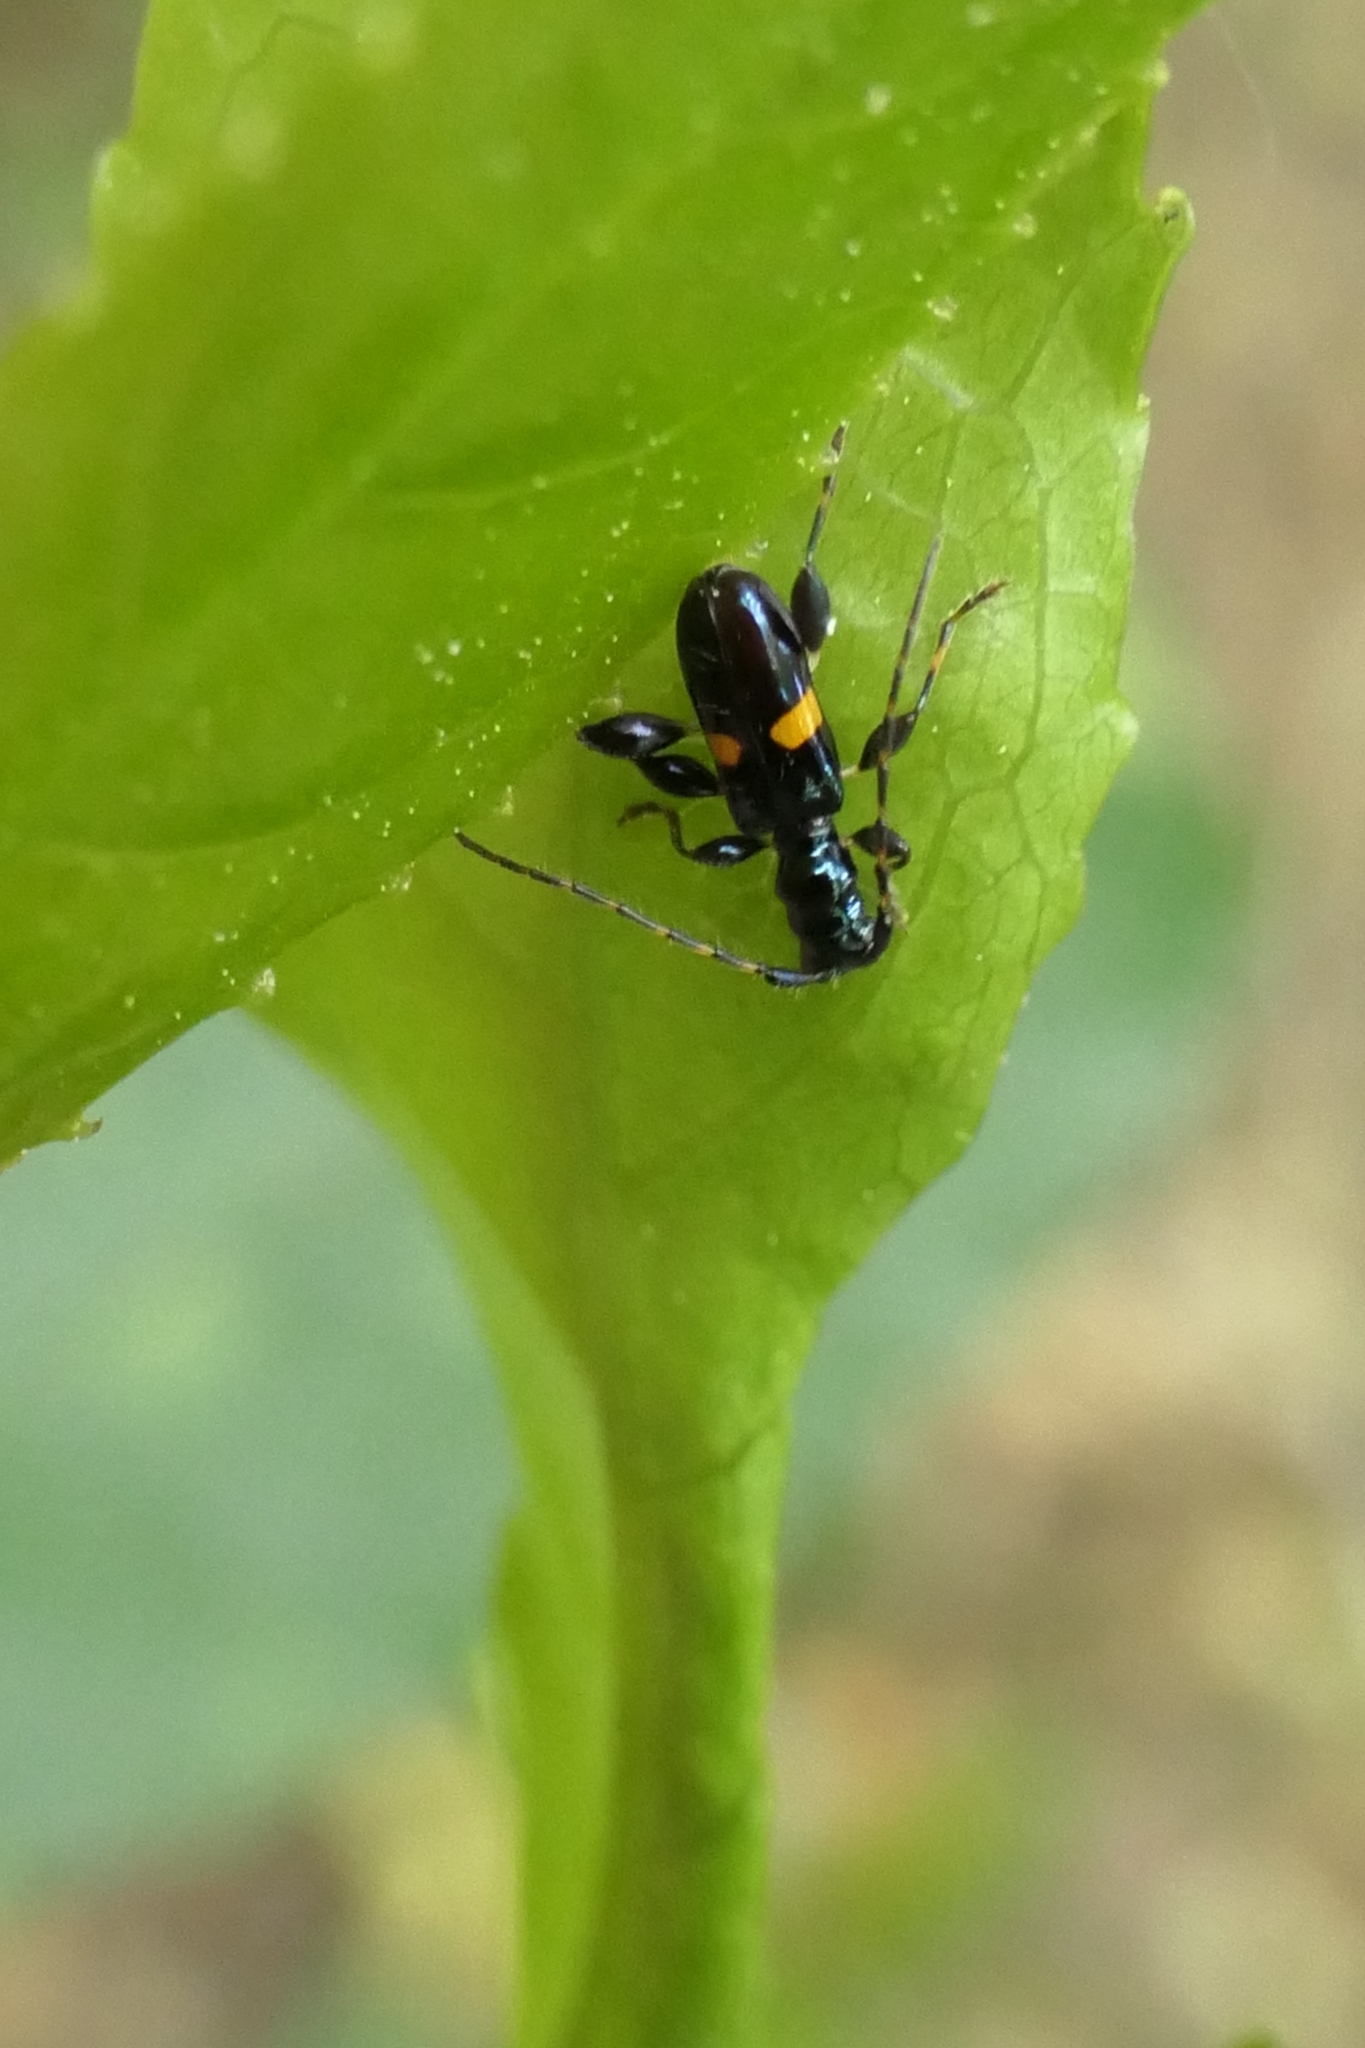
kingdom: Animalia
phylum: Arthropoda
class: Insecta
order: Coleoptera
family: Cerambycidae
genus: Zorion
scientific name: Zorion guttigerum
